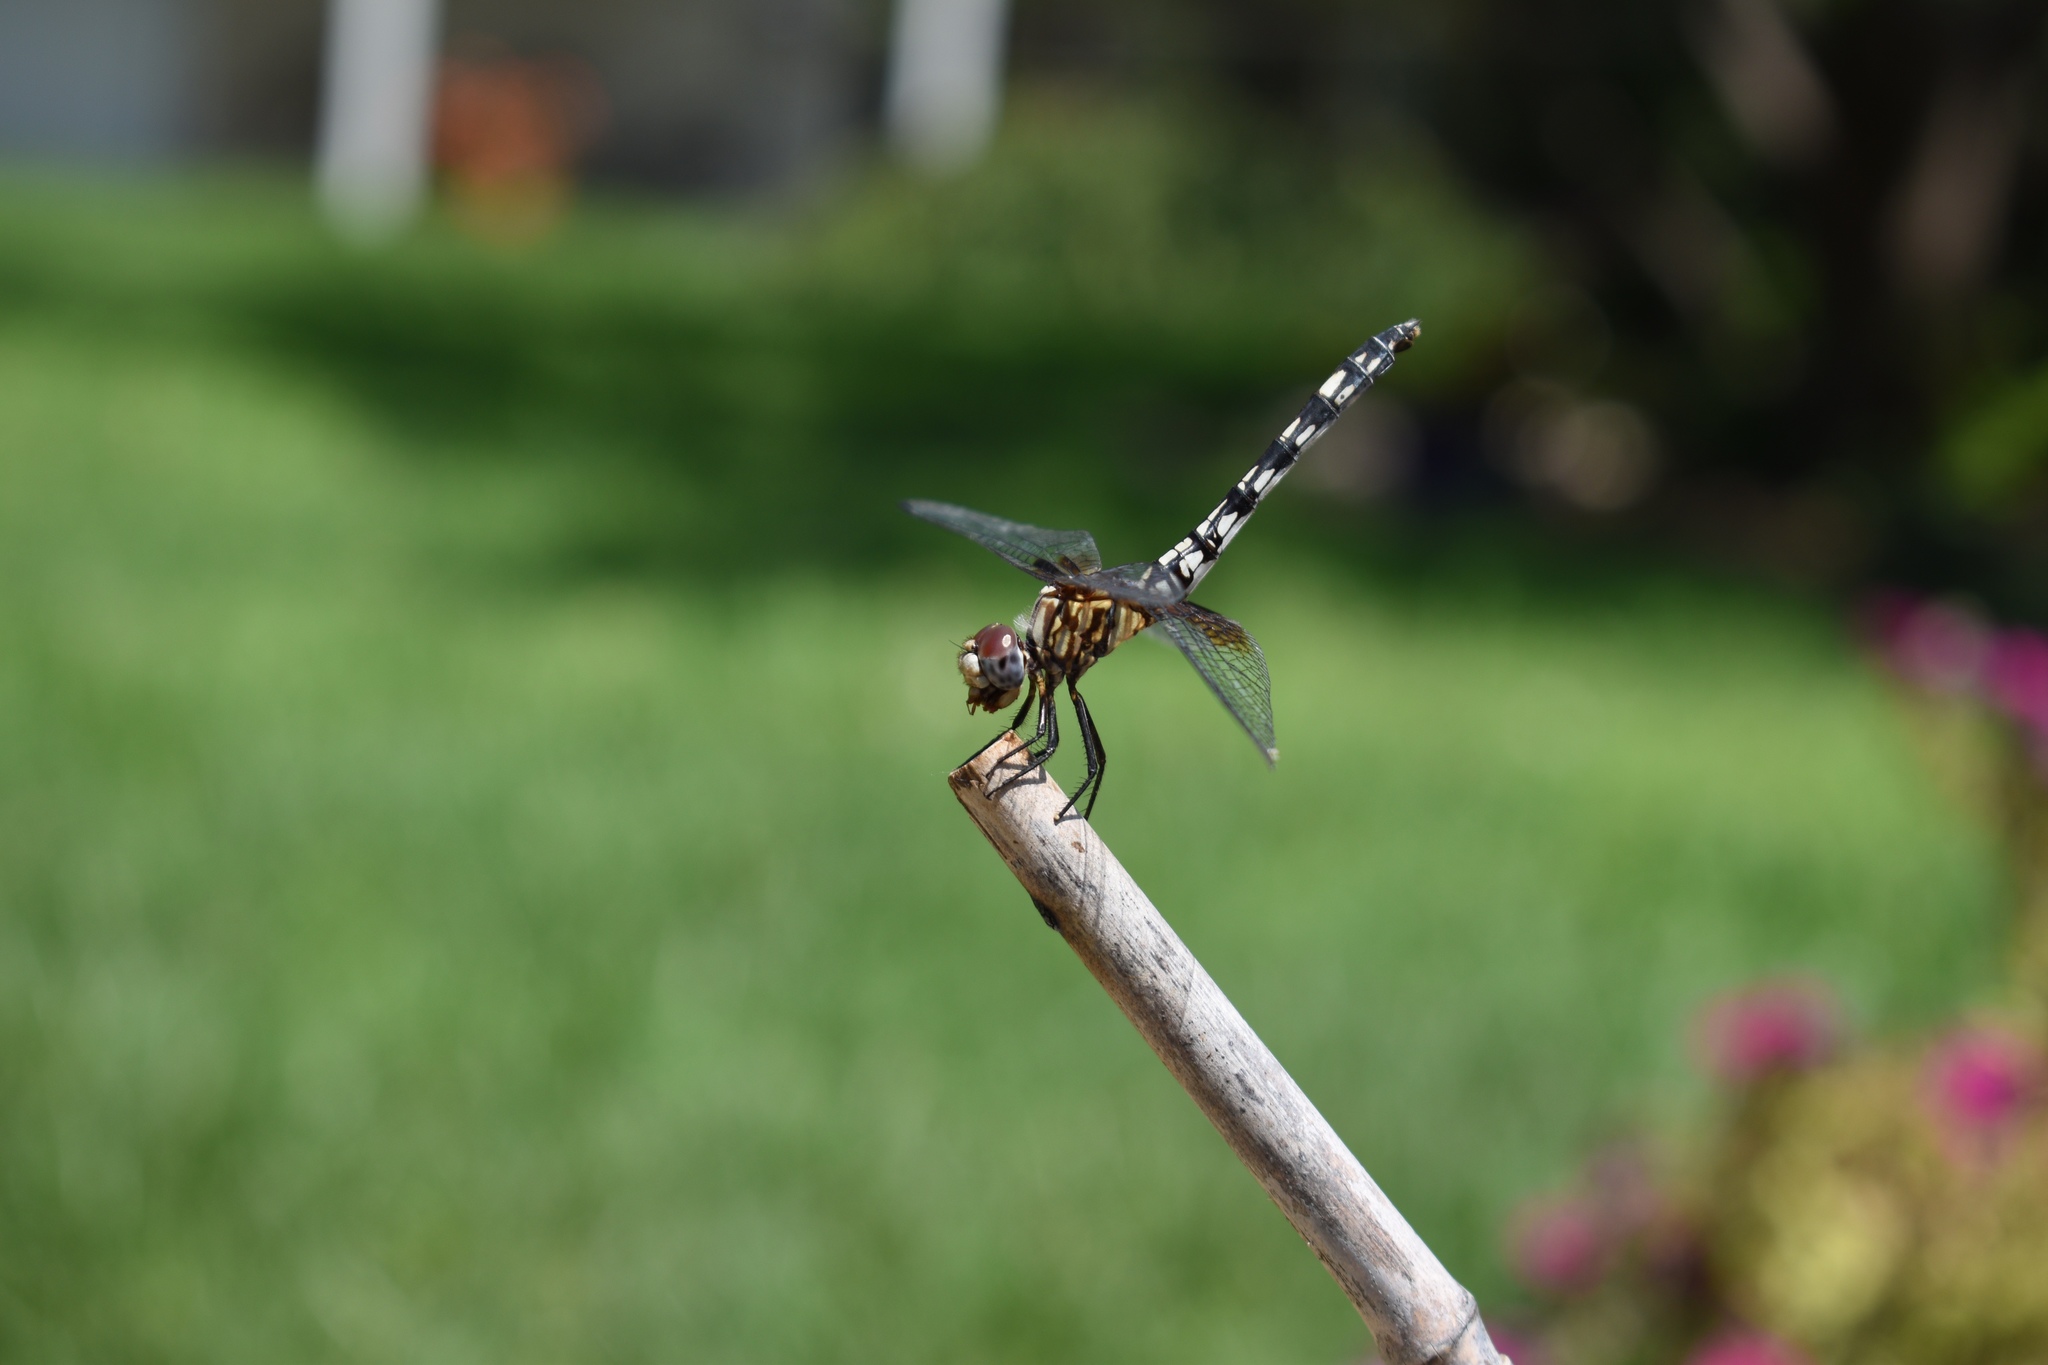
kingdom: Animalia
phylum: Arthropoda
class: Insecta
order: Odonata
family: Libellulidae
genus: Dythemis
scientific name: Dythemis fugax
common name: Checkered setwing
